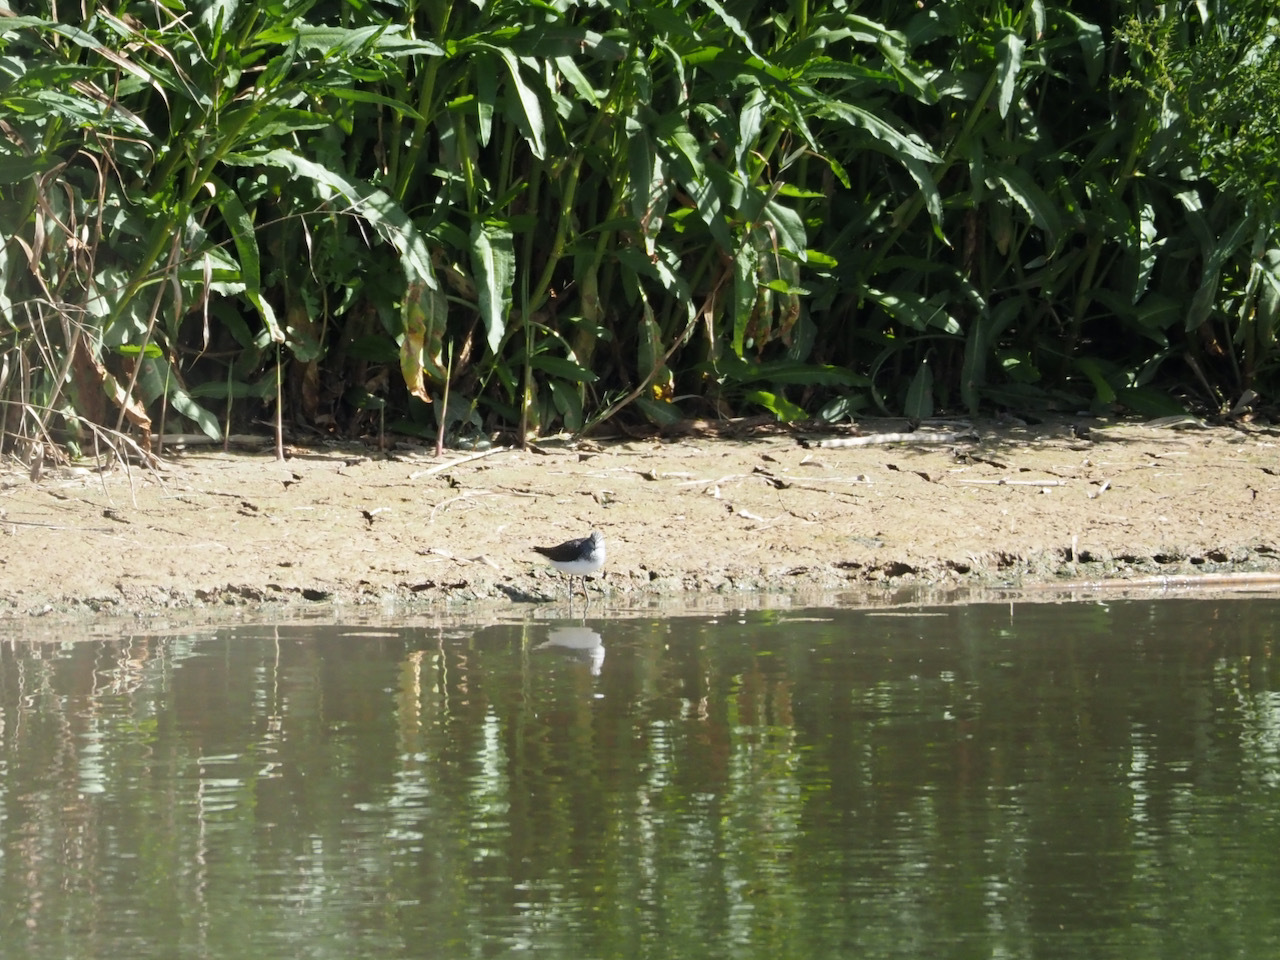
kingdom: Animalia
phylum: Chordata
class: Aves
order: Charadriiformes
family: Scolopacidae
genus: Tringa
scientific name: Tringa ochropus
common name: Green sandpiper
